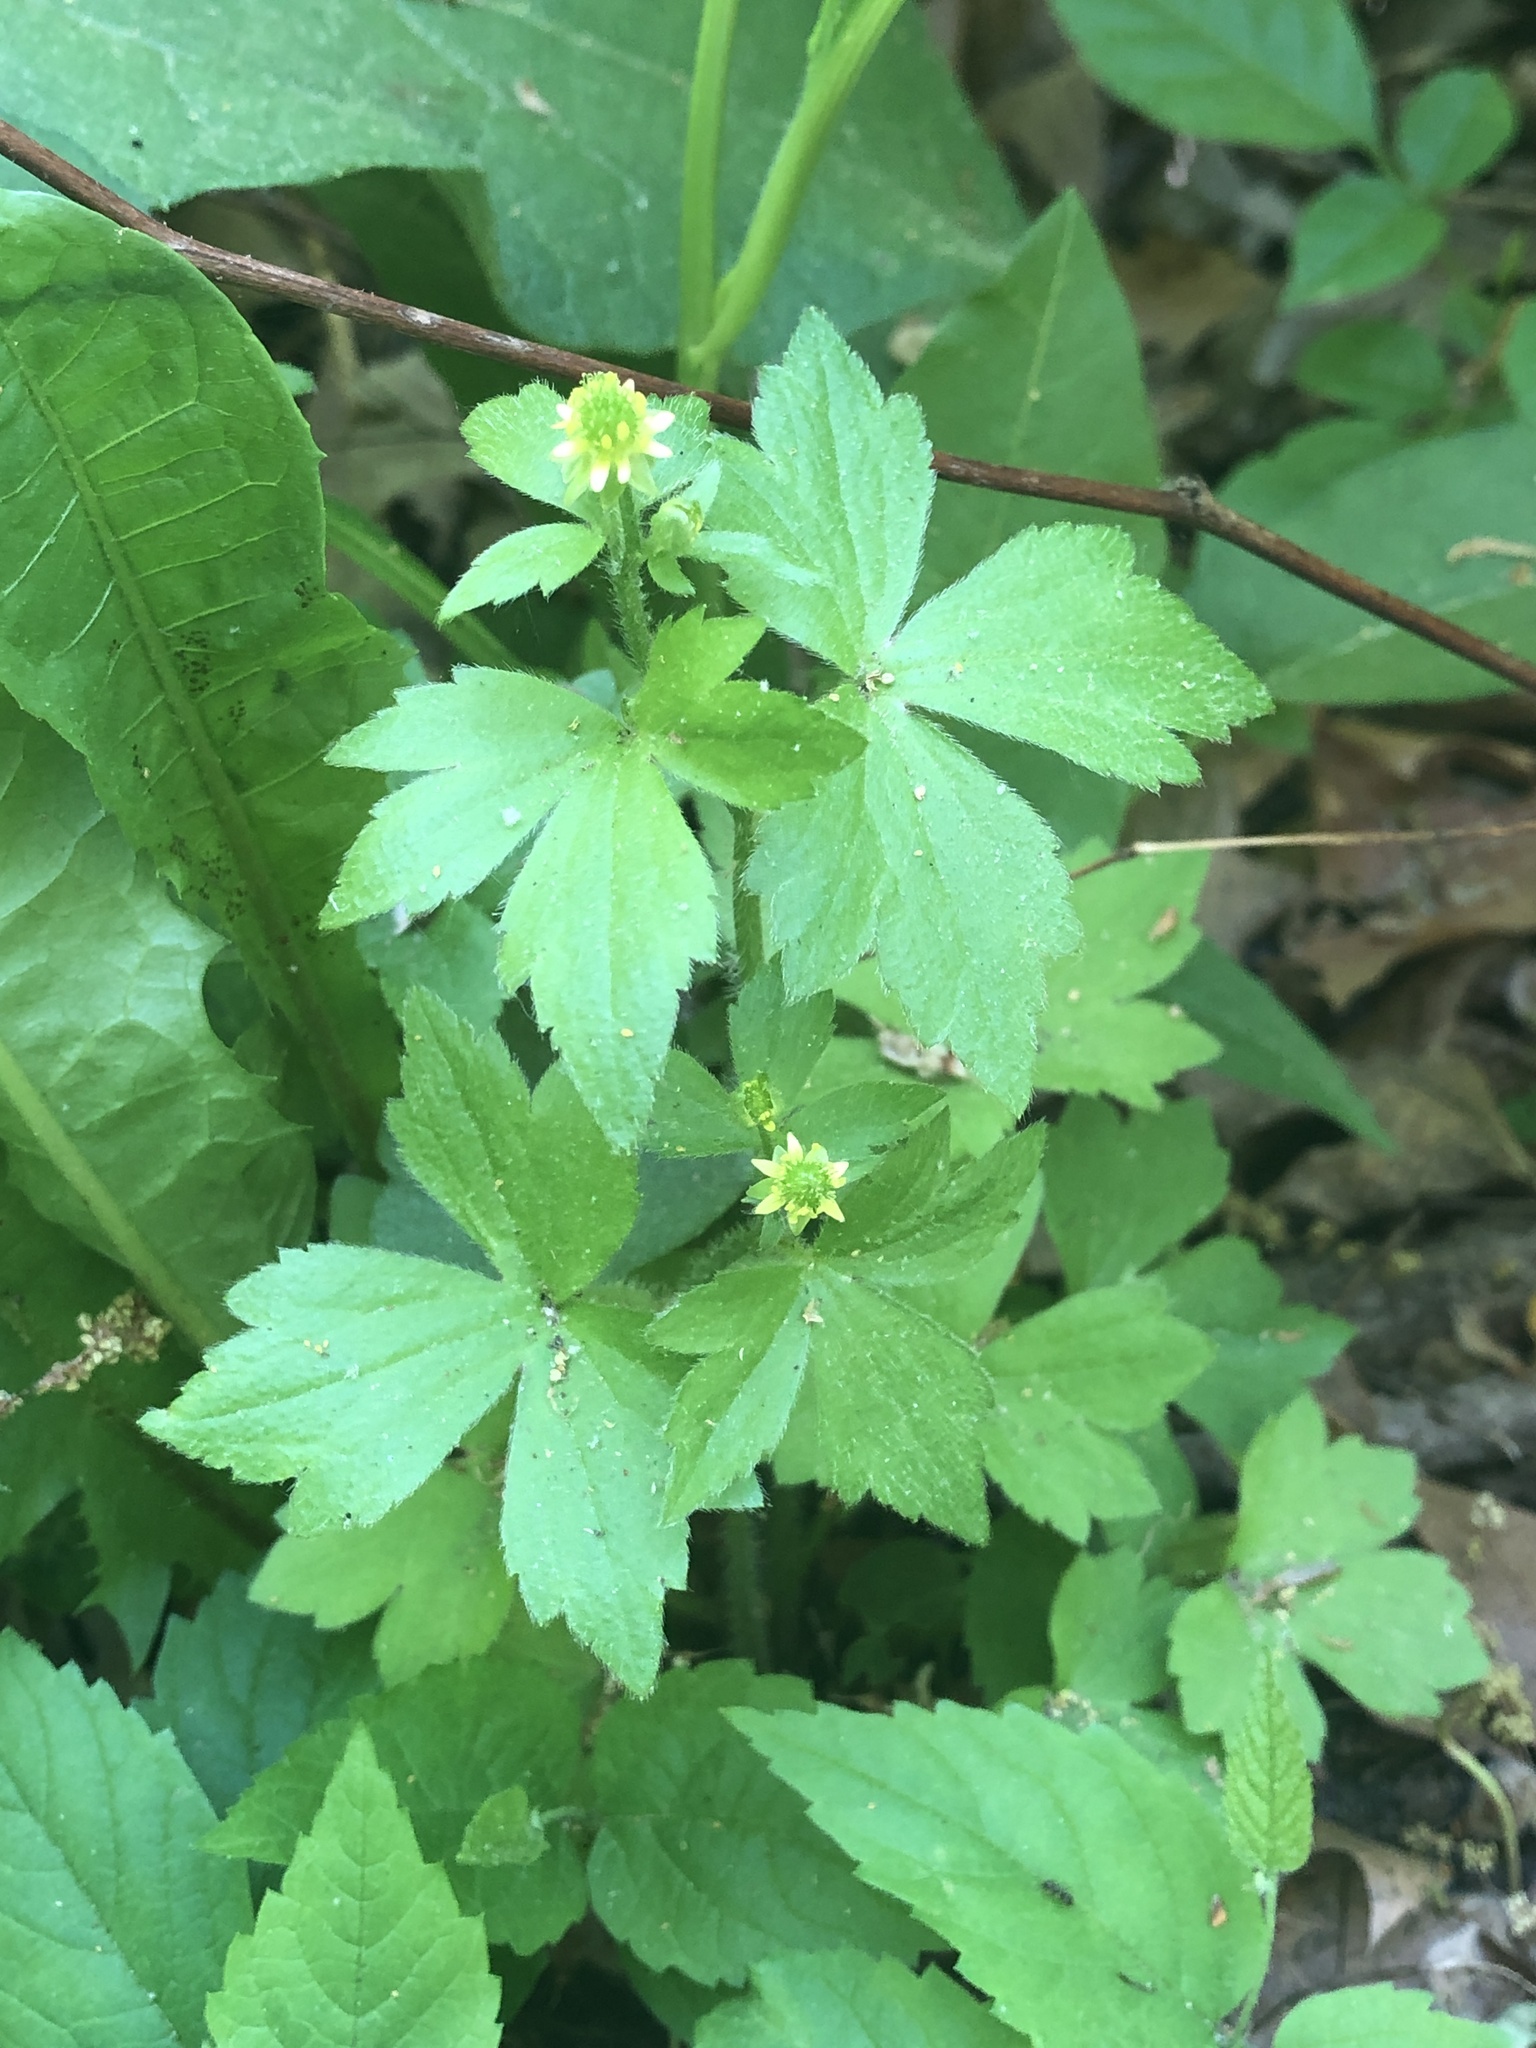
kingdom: Plantae
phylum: Tracheophyta
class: Magnoliopsida
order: Ranunculales
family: Ranunculaceae
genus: Ranunculus
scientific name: Ranunculus recurvatus
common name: Blisterwort
